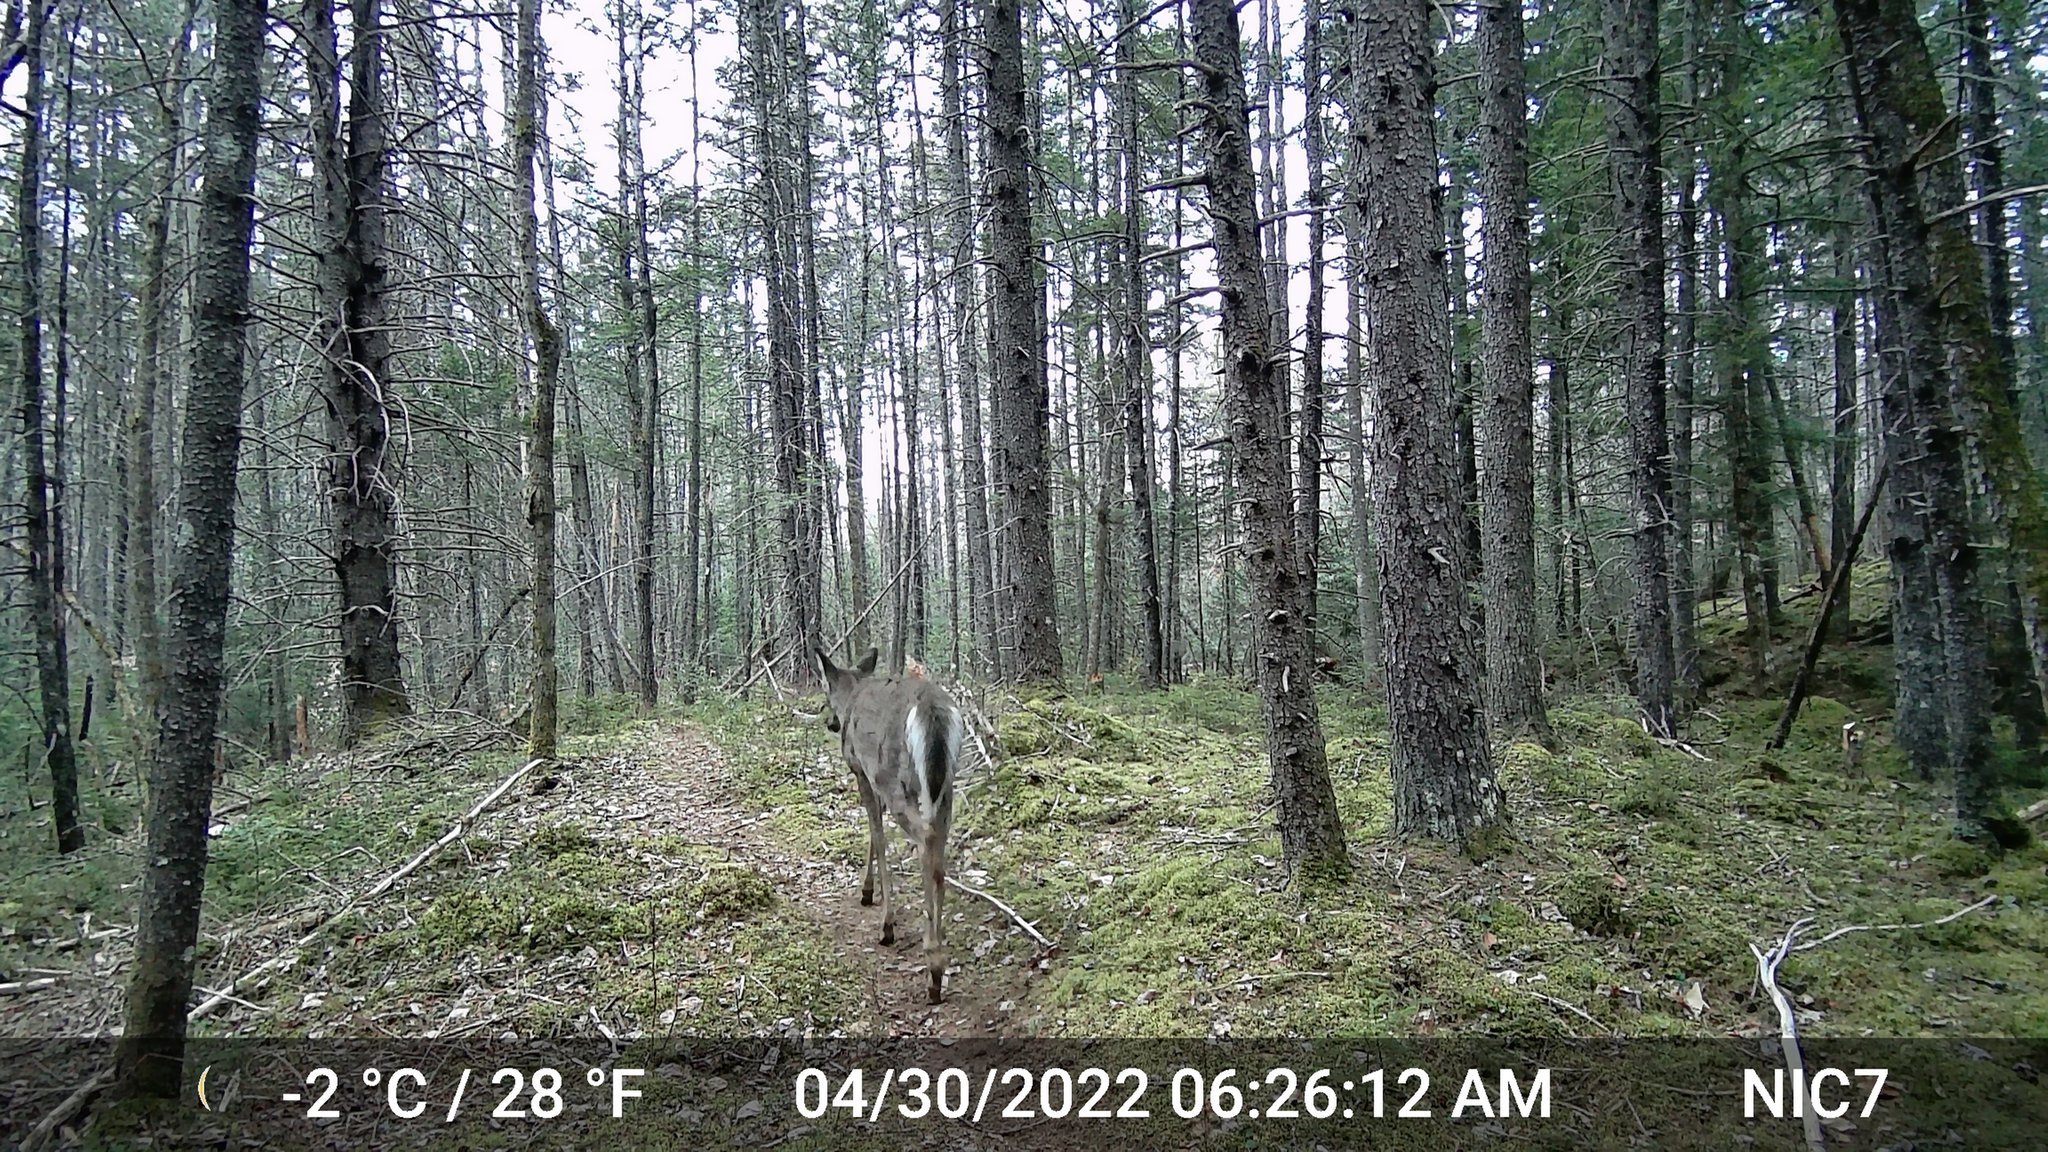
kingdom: Animalia
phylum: Chordata
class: Mammalia
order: Artiodactyla
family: Cervidae
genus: Odocoileus
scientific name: Odocoileus virginianus
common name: White-tailed deer
